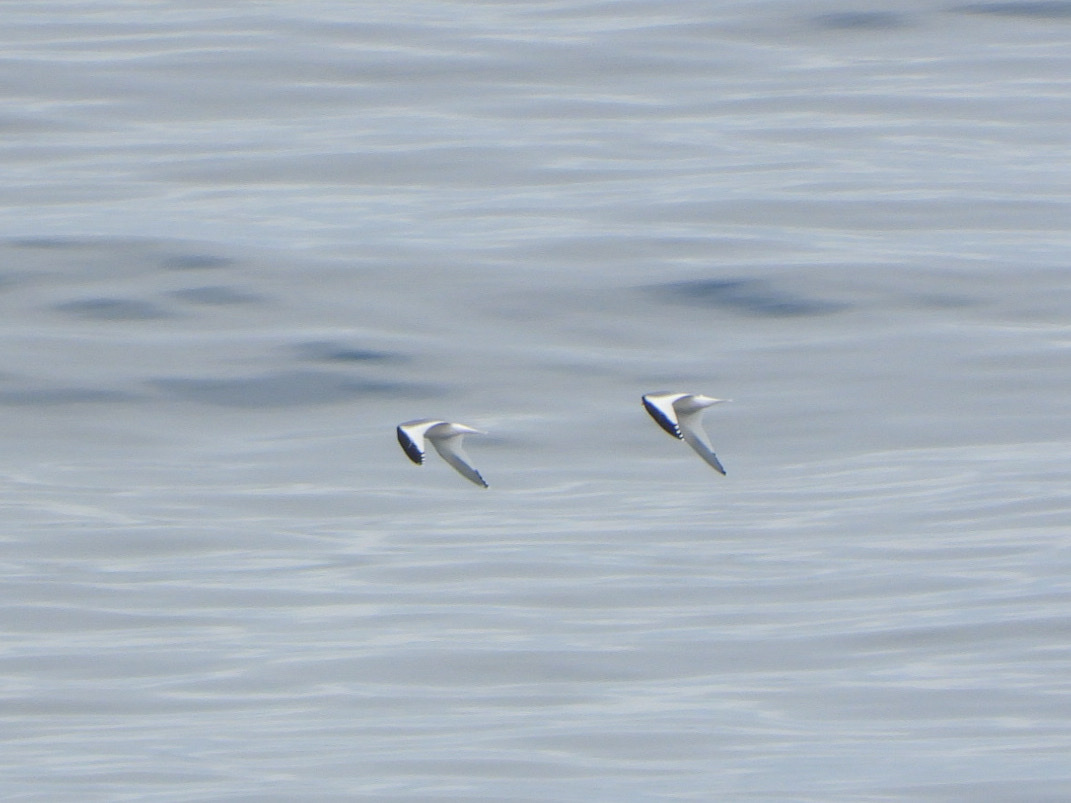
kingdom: Animalia
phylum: Chordata
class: Aves
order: Charadriiformes
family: Laridae
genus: Xema
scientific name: Xema sabini
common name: Sabine's gull
